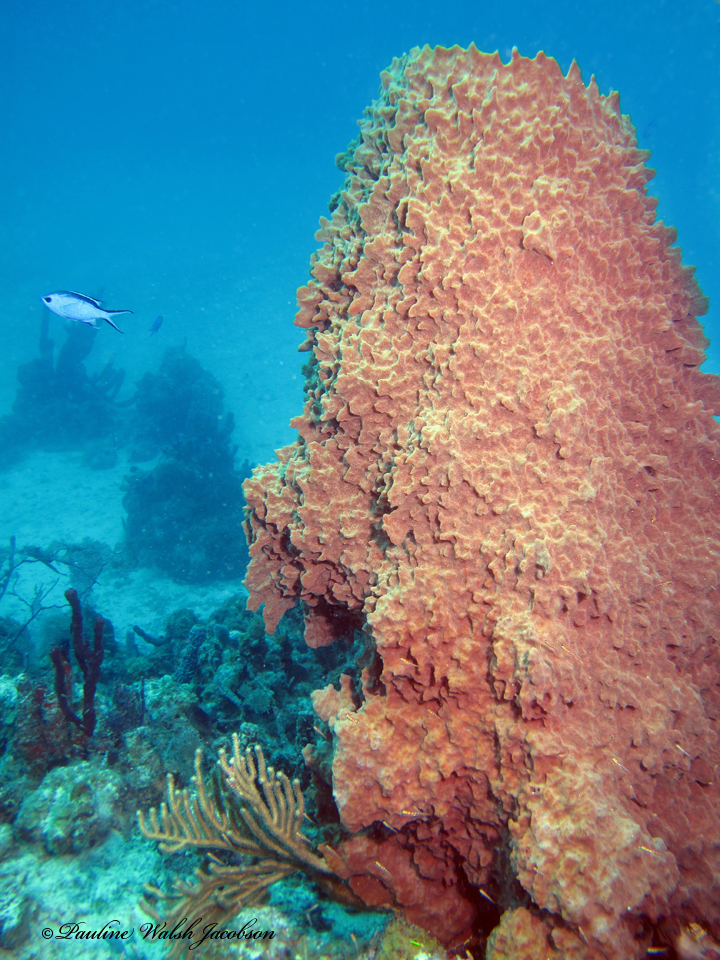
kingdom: Animalia
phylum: Porifera
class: Demospongiae
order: Haplosclerida
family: Petrosiidae
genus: Xestospongia
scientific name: Xestospongia muta
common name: Giant barrel sponge
